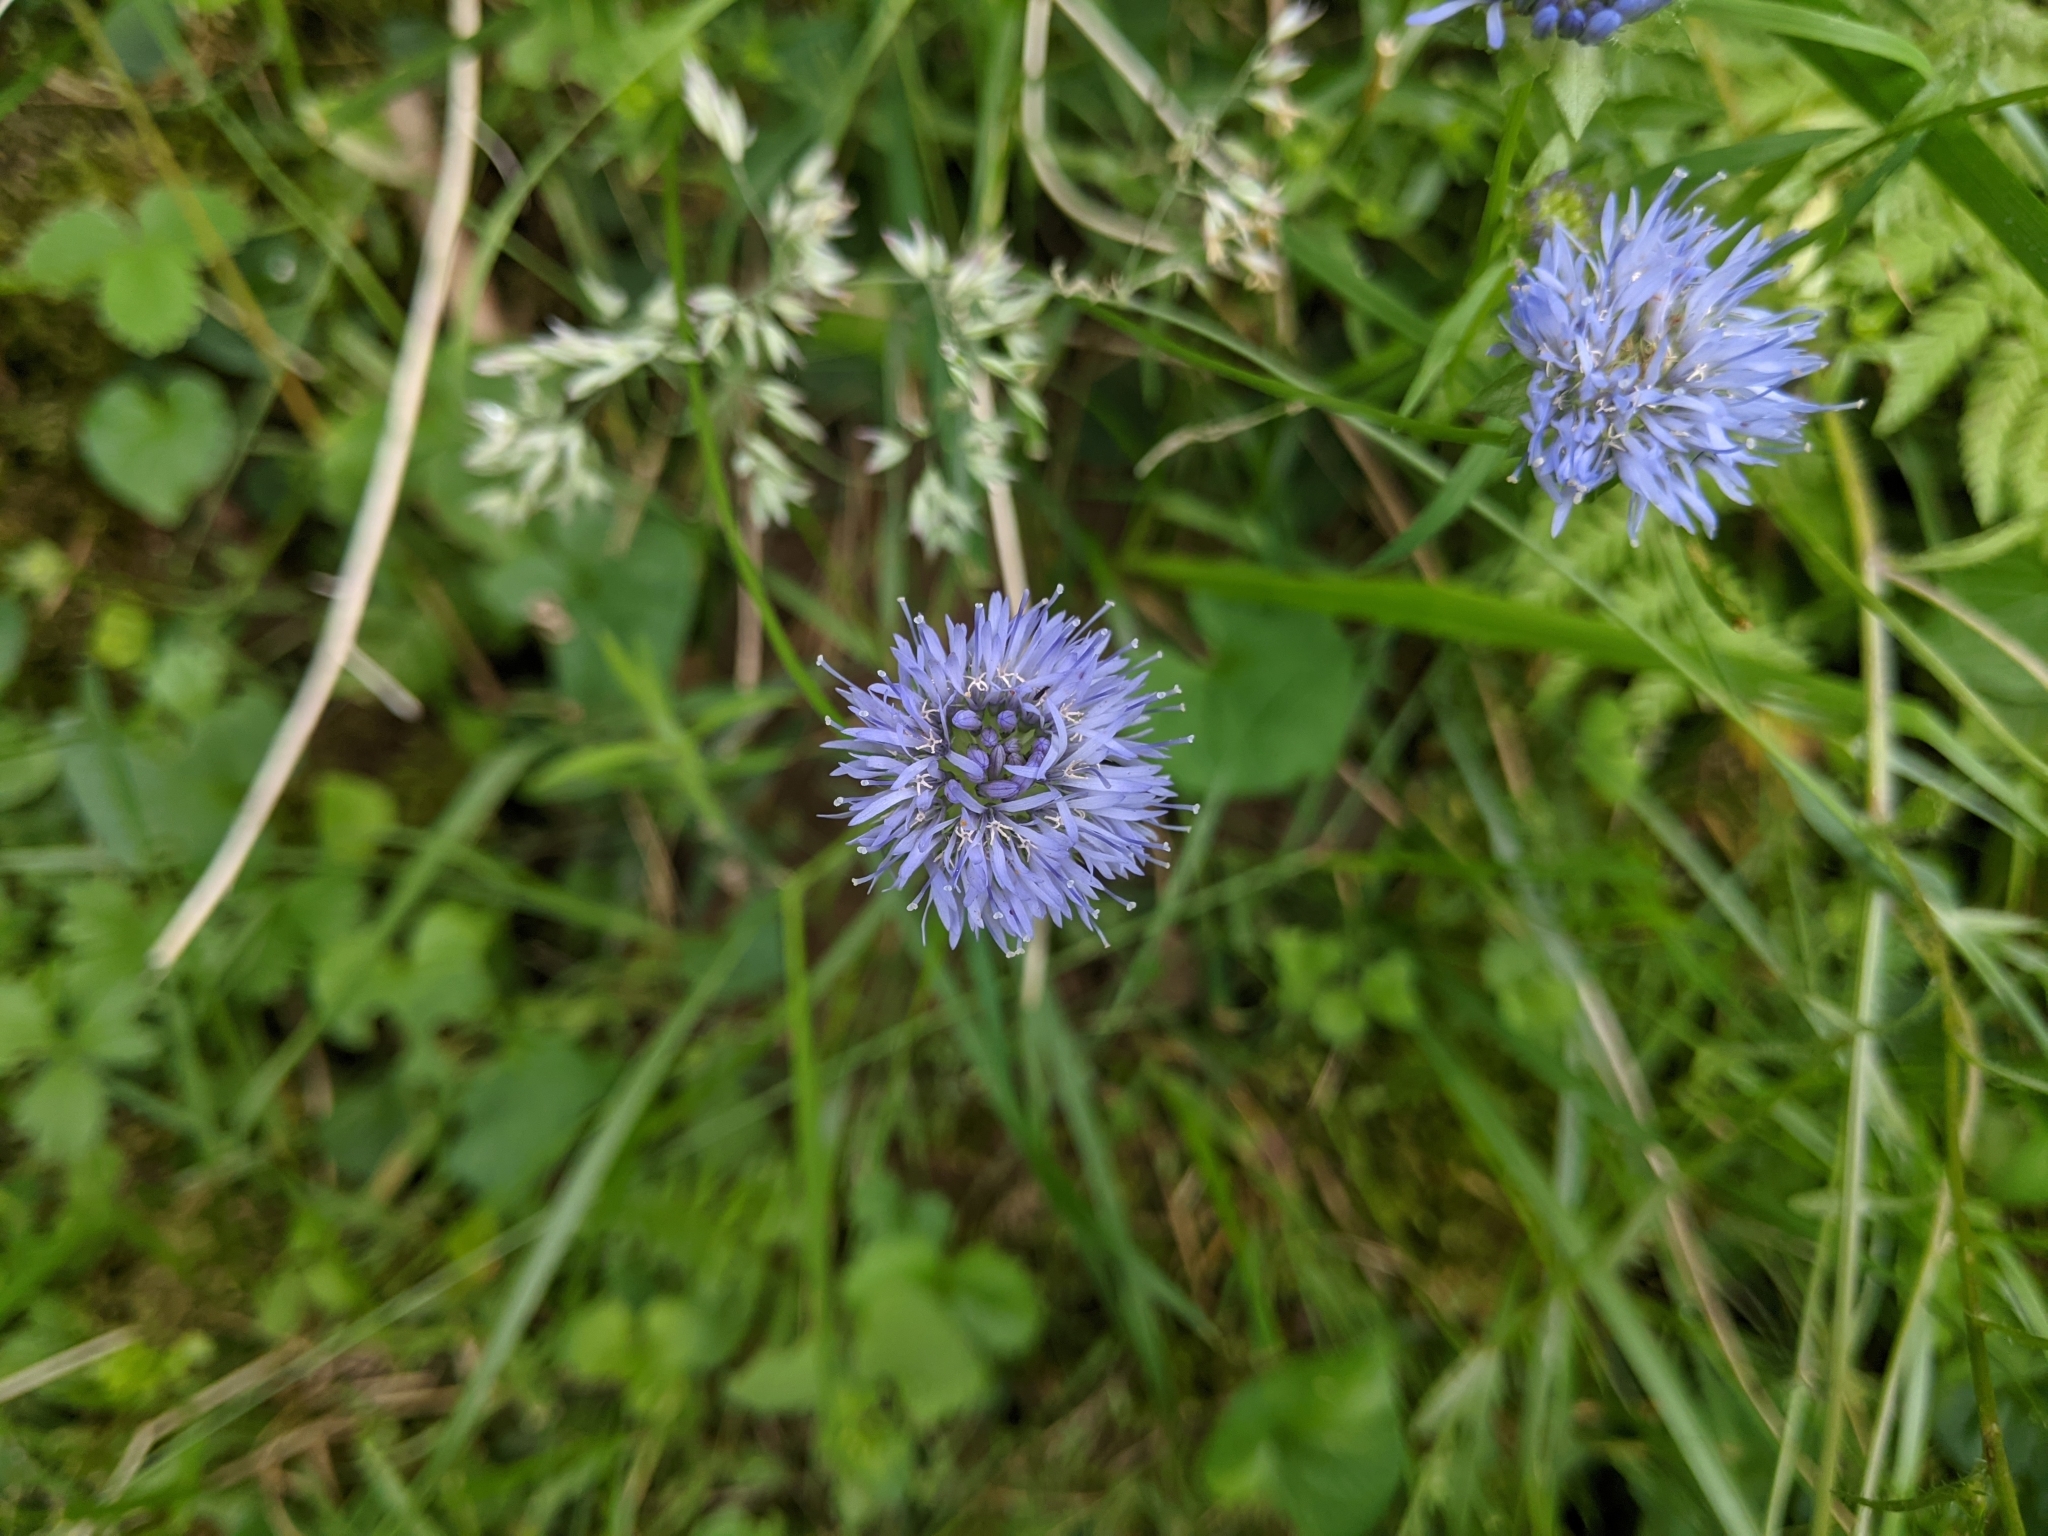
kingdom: Plantae
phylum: Tracheophyta
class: Magnoliopsida
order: Asterales
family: Campanulaceae
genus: Jasione
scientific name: Jasione montana
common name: Sheep's-bit
